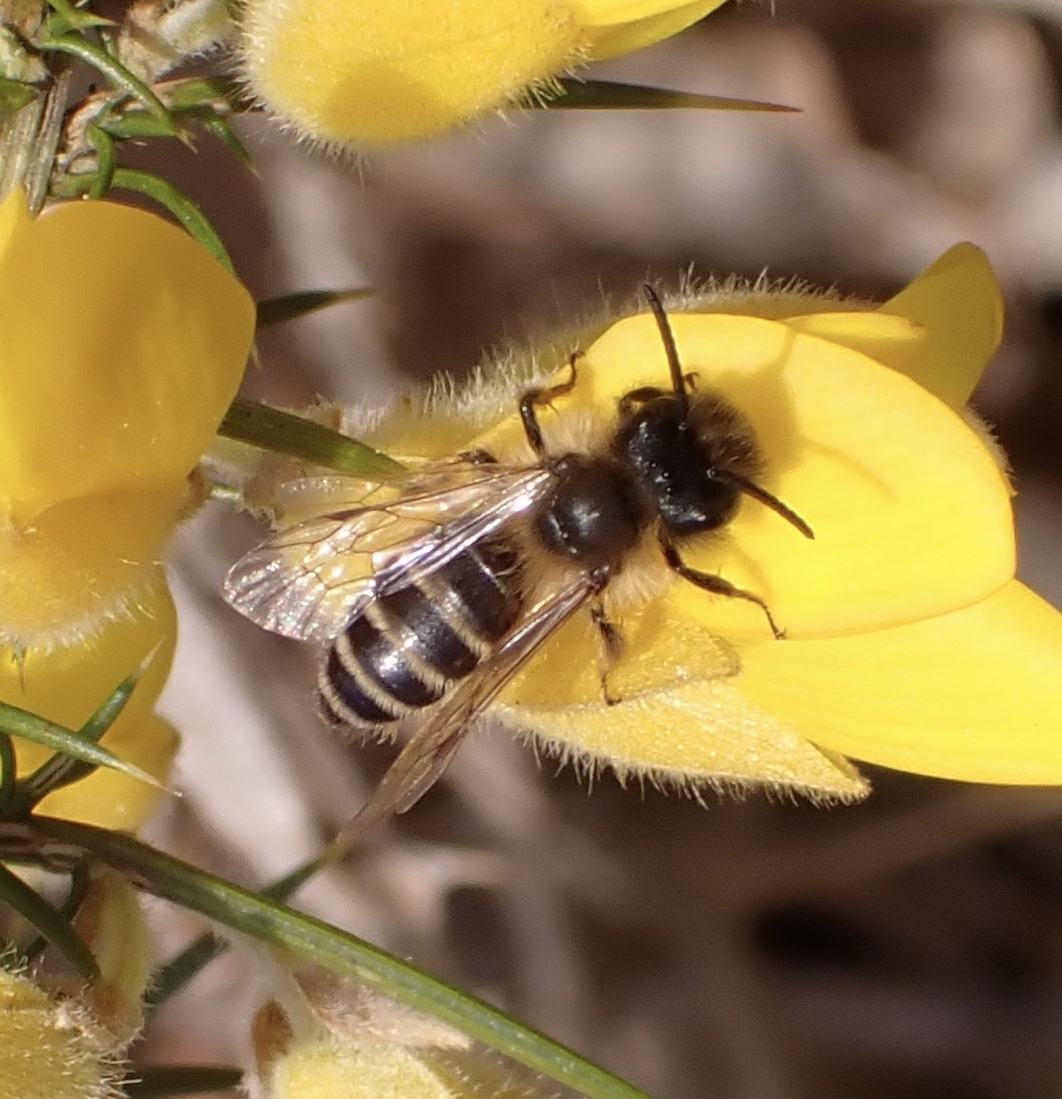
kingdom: Animalia
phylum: Arthropoda
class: Insecta
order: Hymenoptera
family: Andrenidae
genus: Andrena
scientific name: Andrena flavipes
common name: Yellow-legged mining bee
